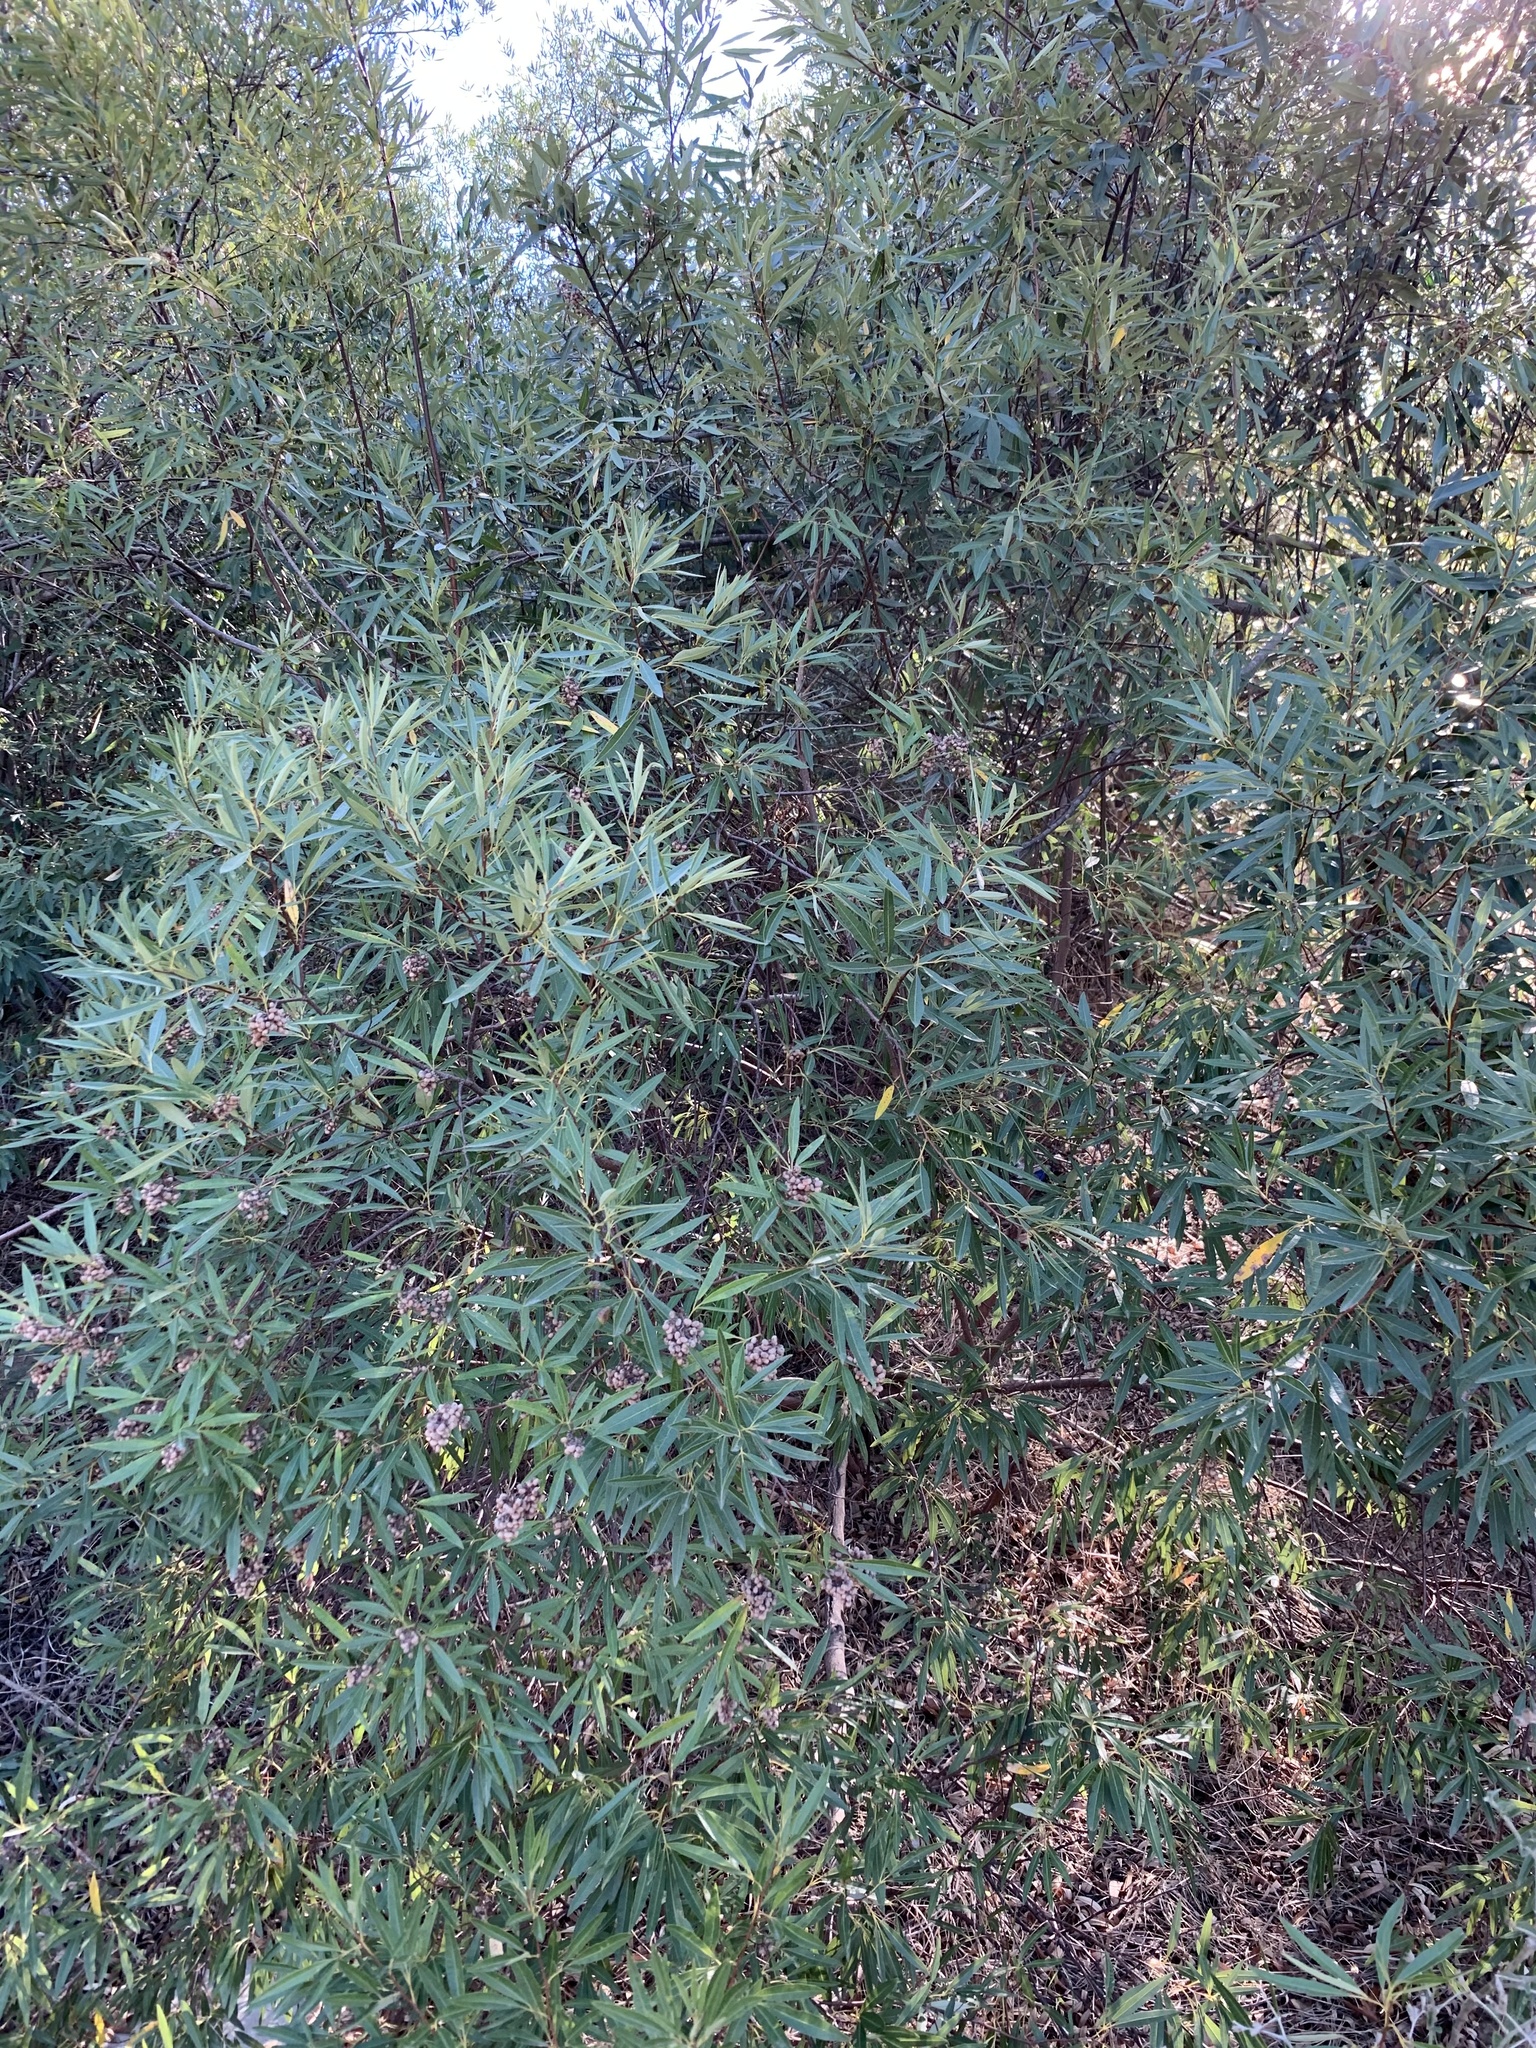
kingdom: Plantae
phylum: Tracheophyta
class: Magnoliopsida
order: Sapindales
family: Anacardiaceae
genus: Searsia
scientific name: Searsia angustifolia
